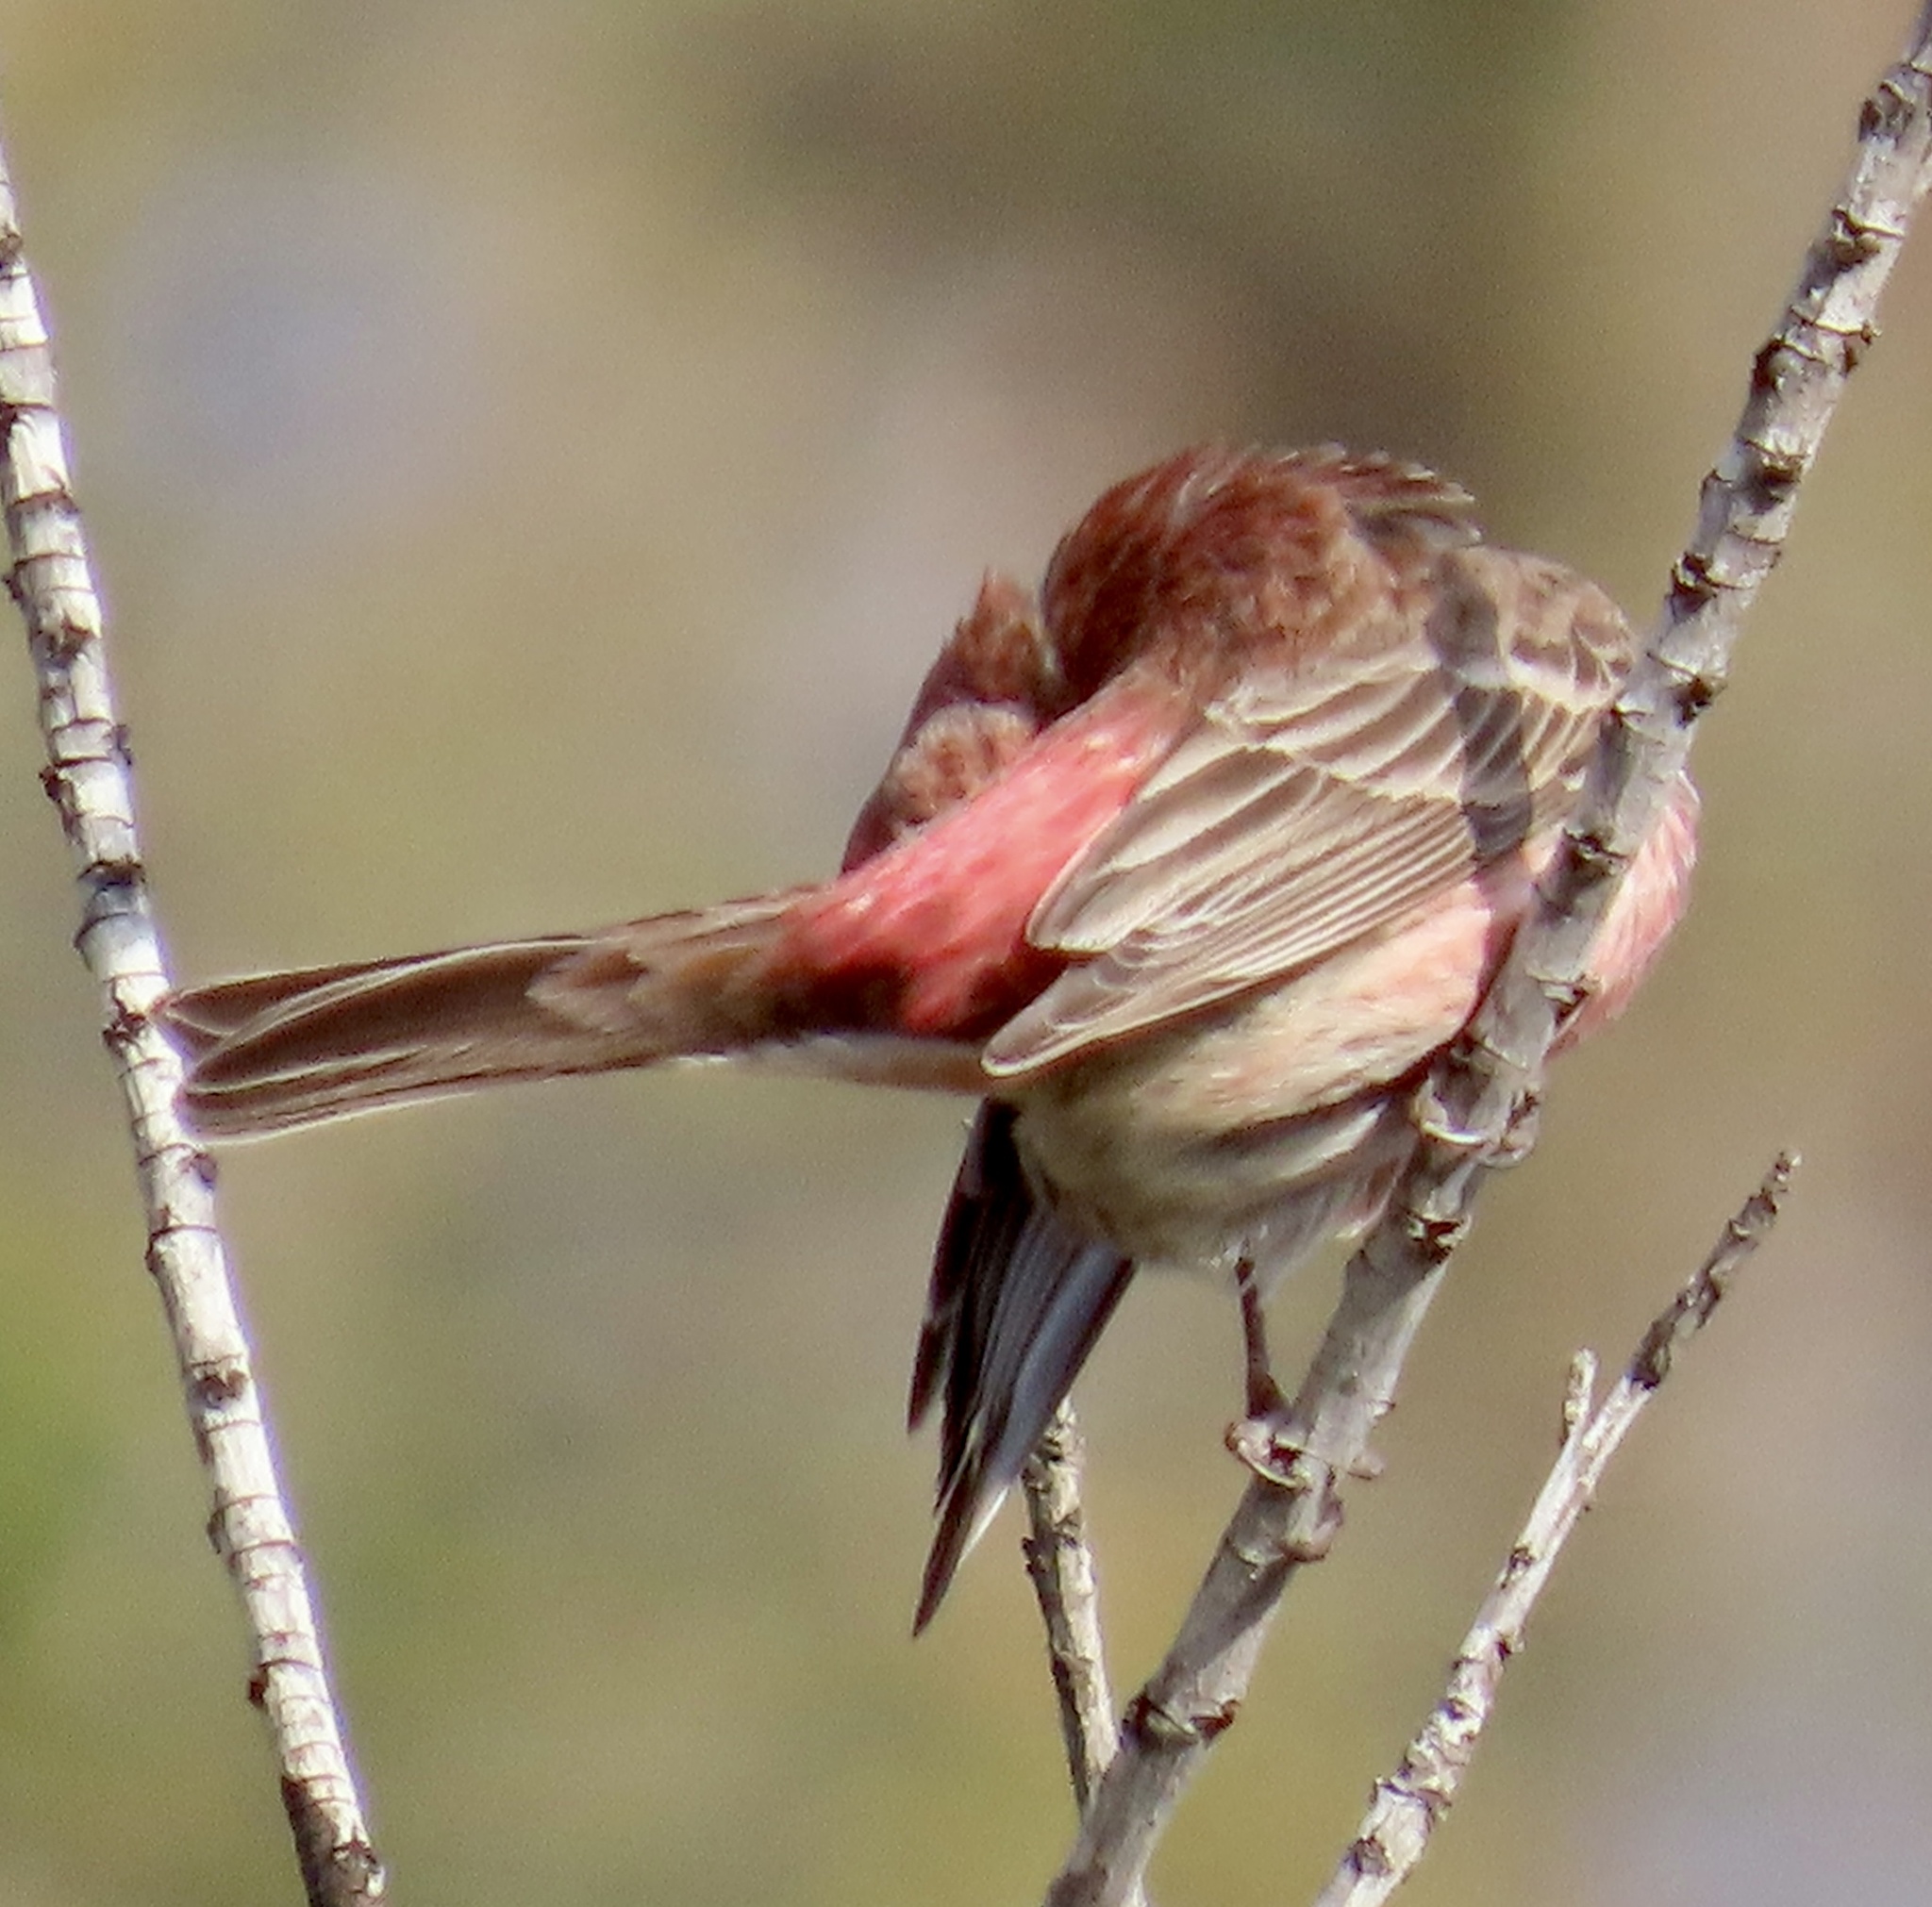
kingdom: Animalia
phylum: Chordata
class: Aves
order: Passeriformes
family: Fringillidae
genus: Haemorhous
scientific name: Haemorhous mexicanus
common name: House finch
